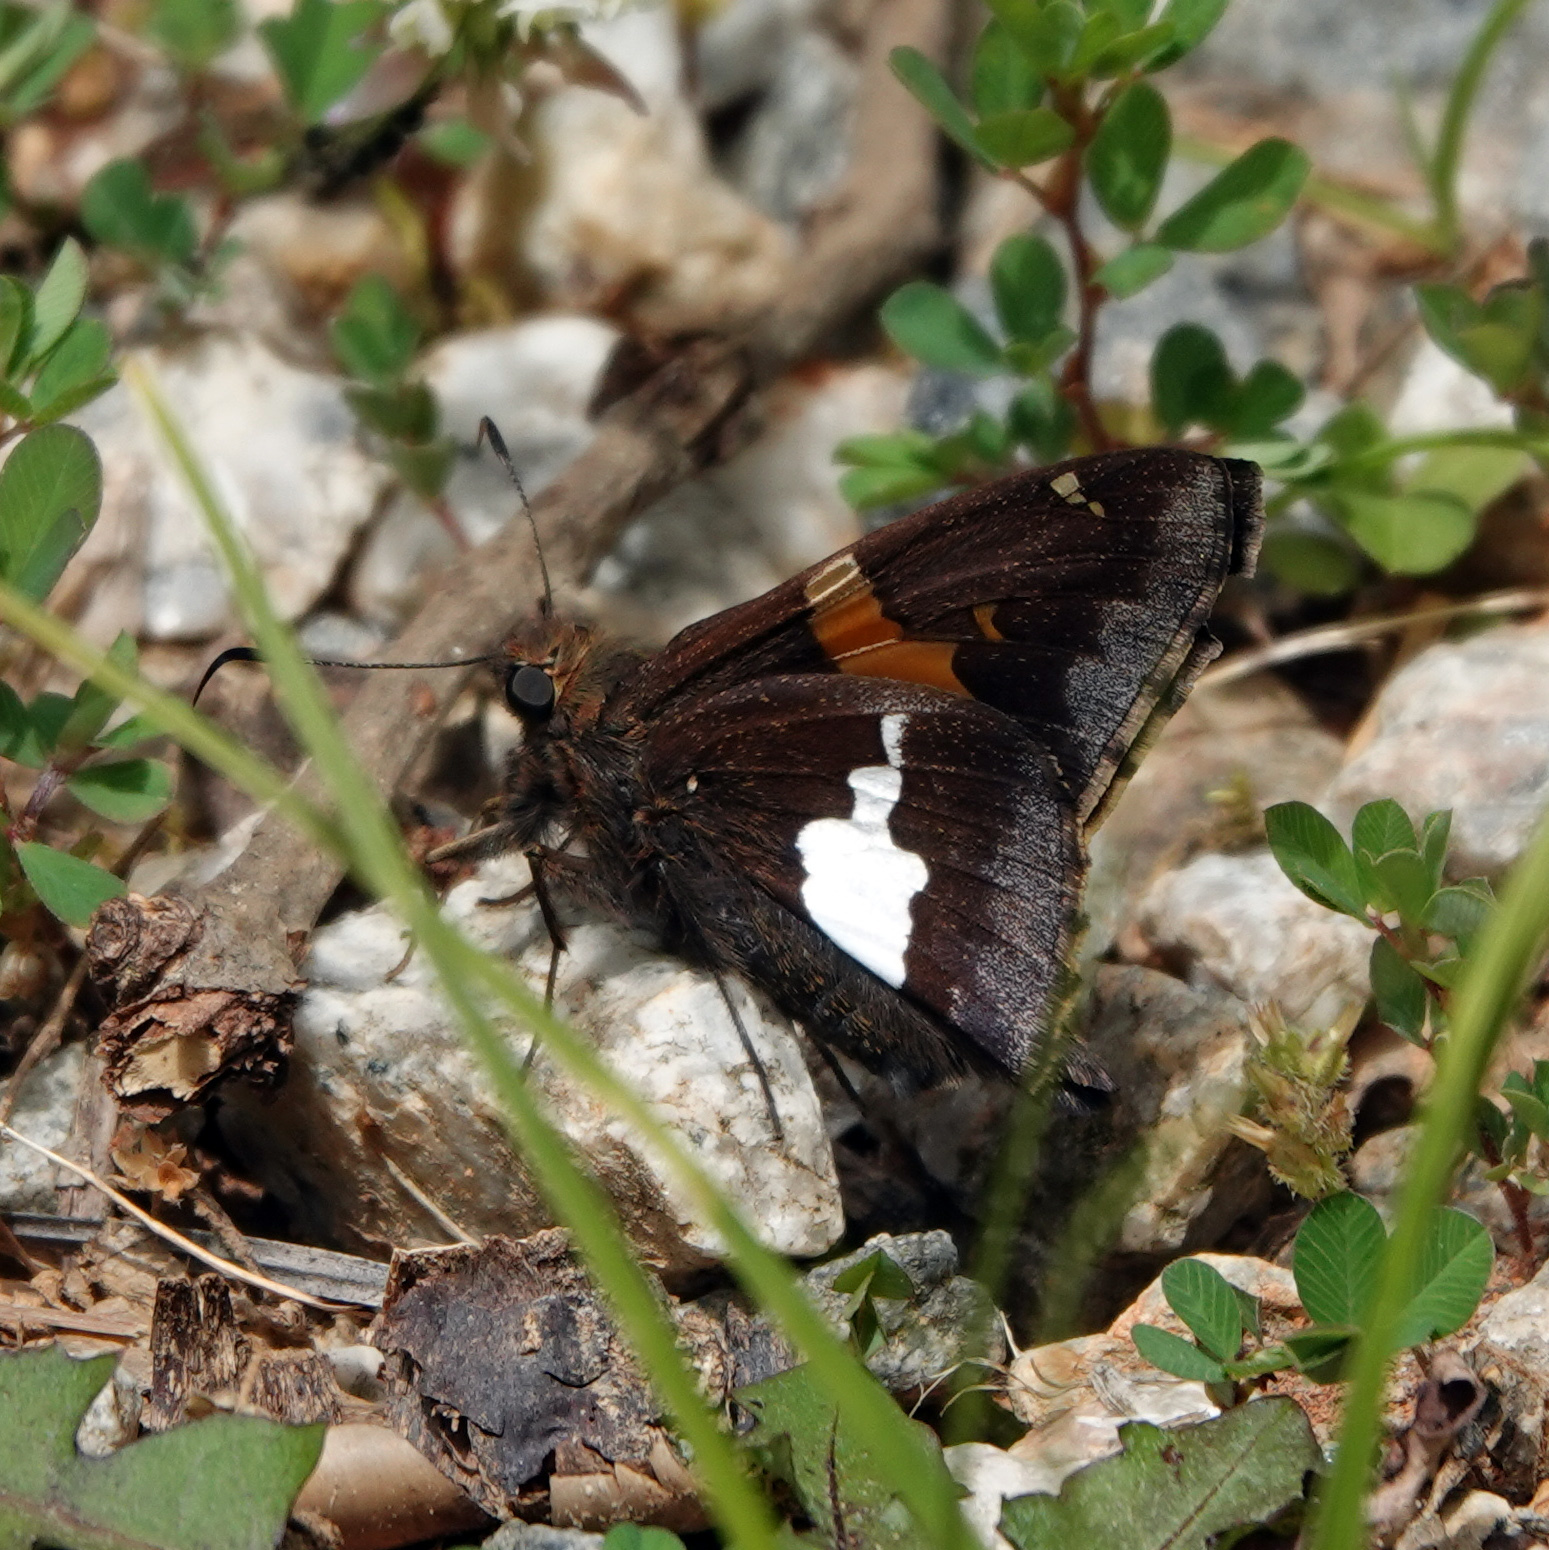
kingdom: Animalia
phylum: Arthropoda
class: Insecta
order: Lepidoptera
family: Hesperiidae
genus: Epargyreus
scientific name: Epargyreus clarus
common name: Silver-spotted skipper
